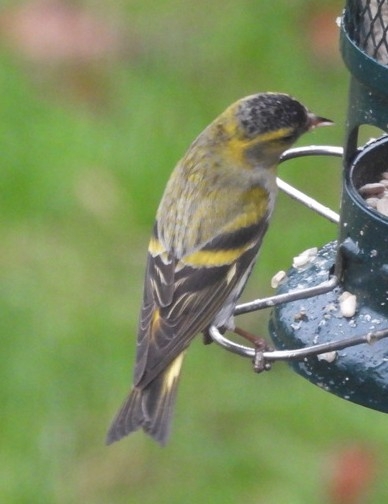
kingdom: Animalia
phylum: Chordata
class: Aves
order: Passeriformes
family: Fringillidae
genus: Spinus
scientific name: Spinus spinus
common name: Eurasian siskin
